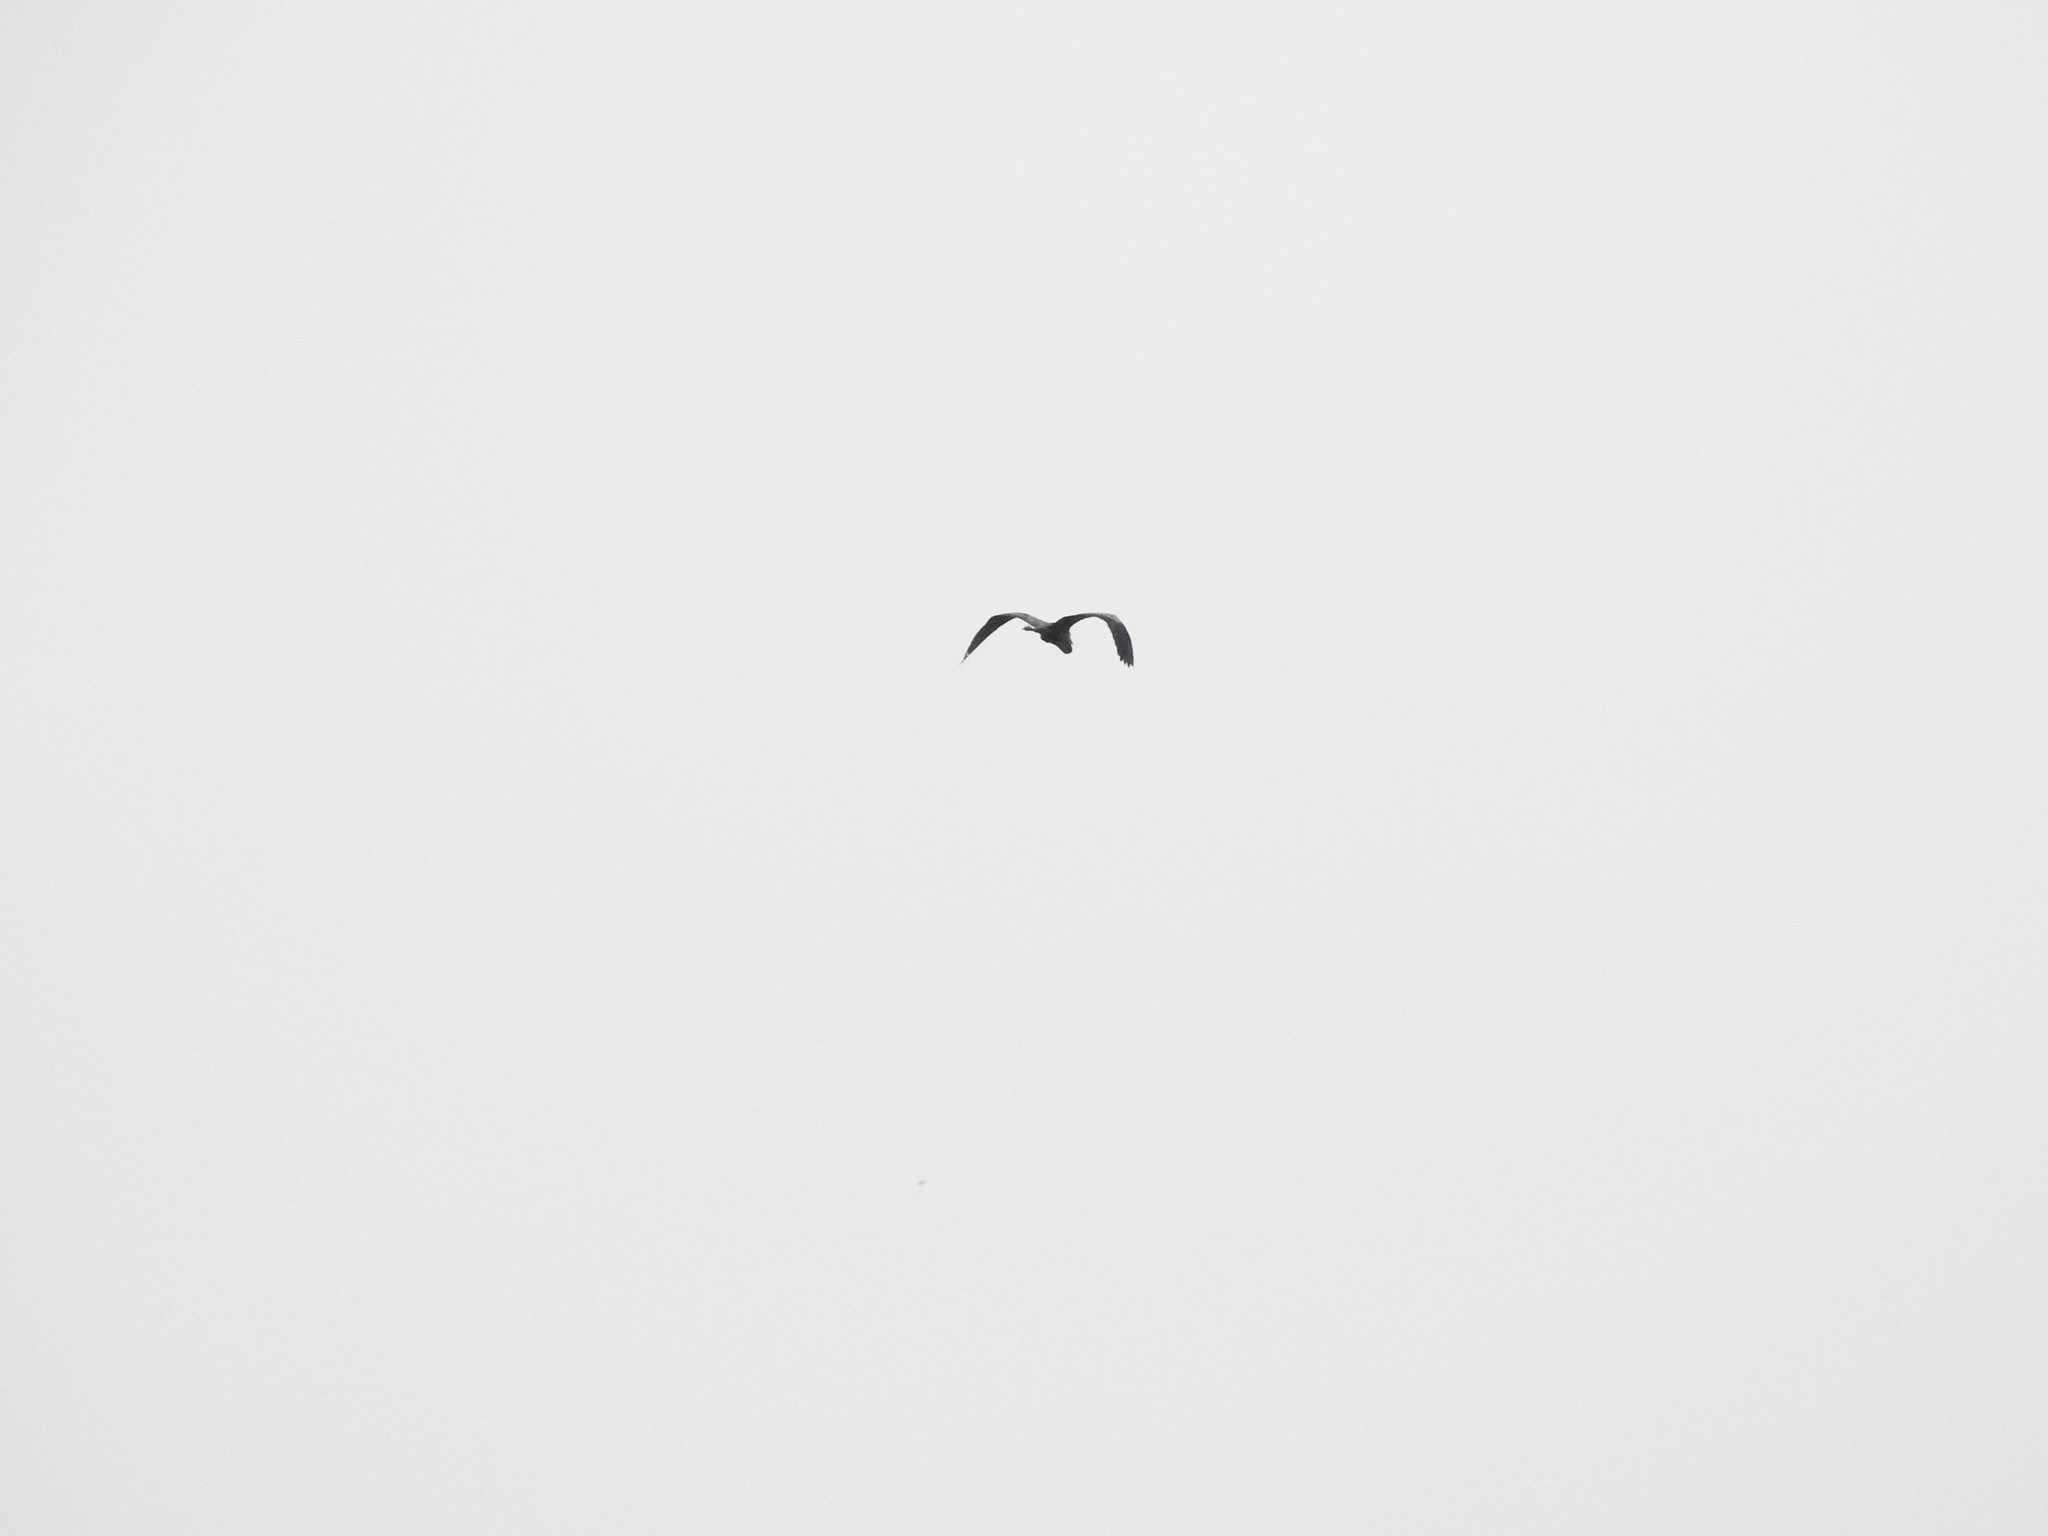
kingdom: Animalia
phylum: Chordata
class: Aves
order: Pelecaniformes
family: Ardeidae
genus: Ardea
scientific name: Ardea cinerea
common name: Grey heron
